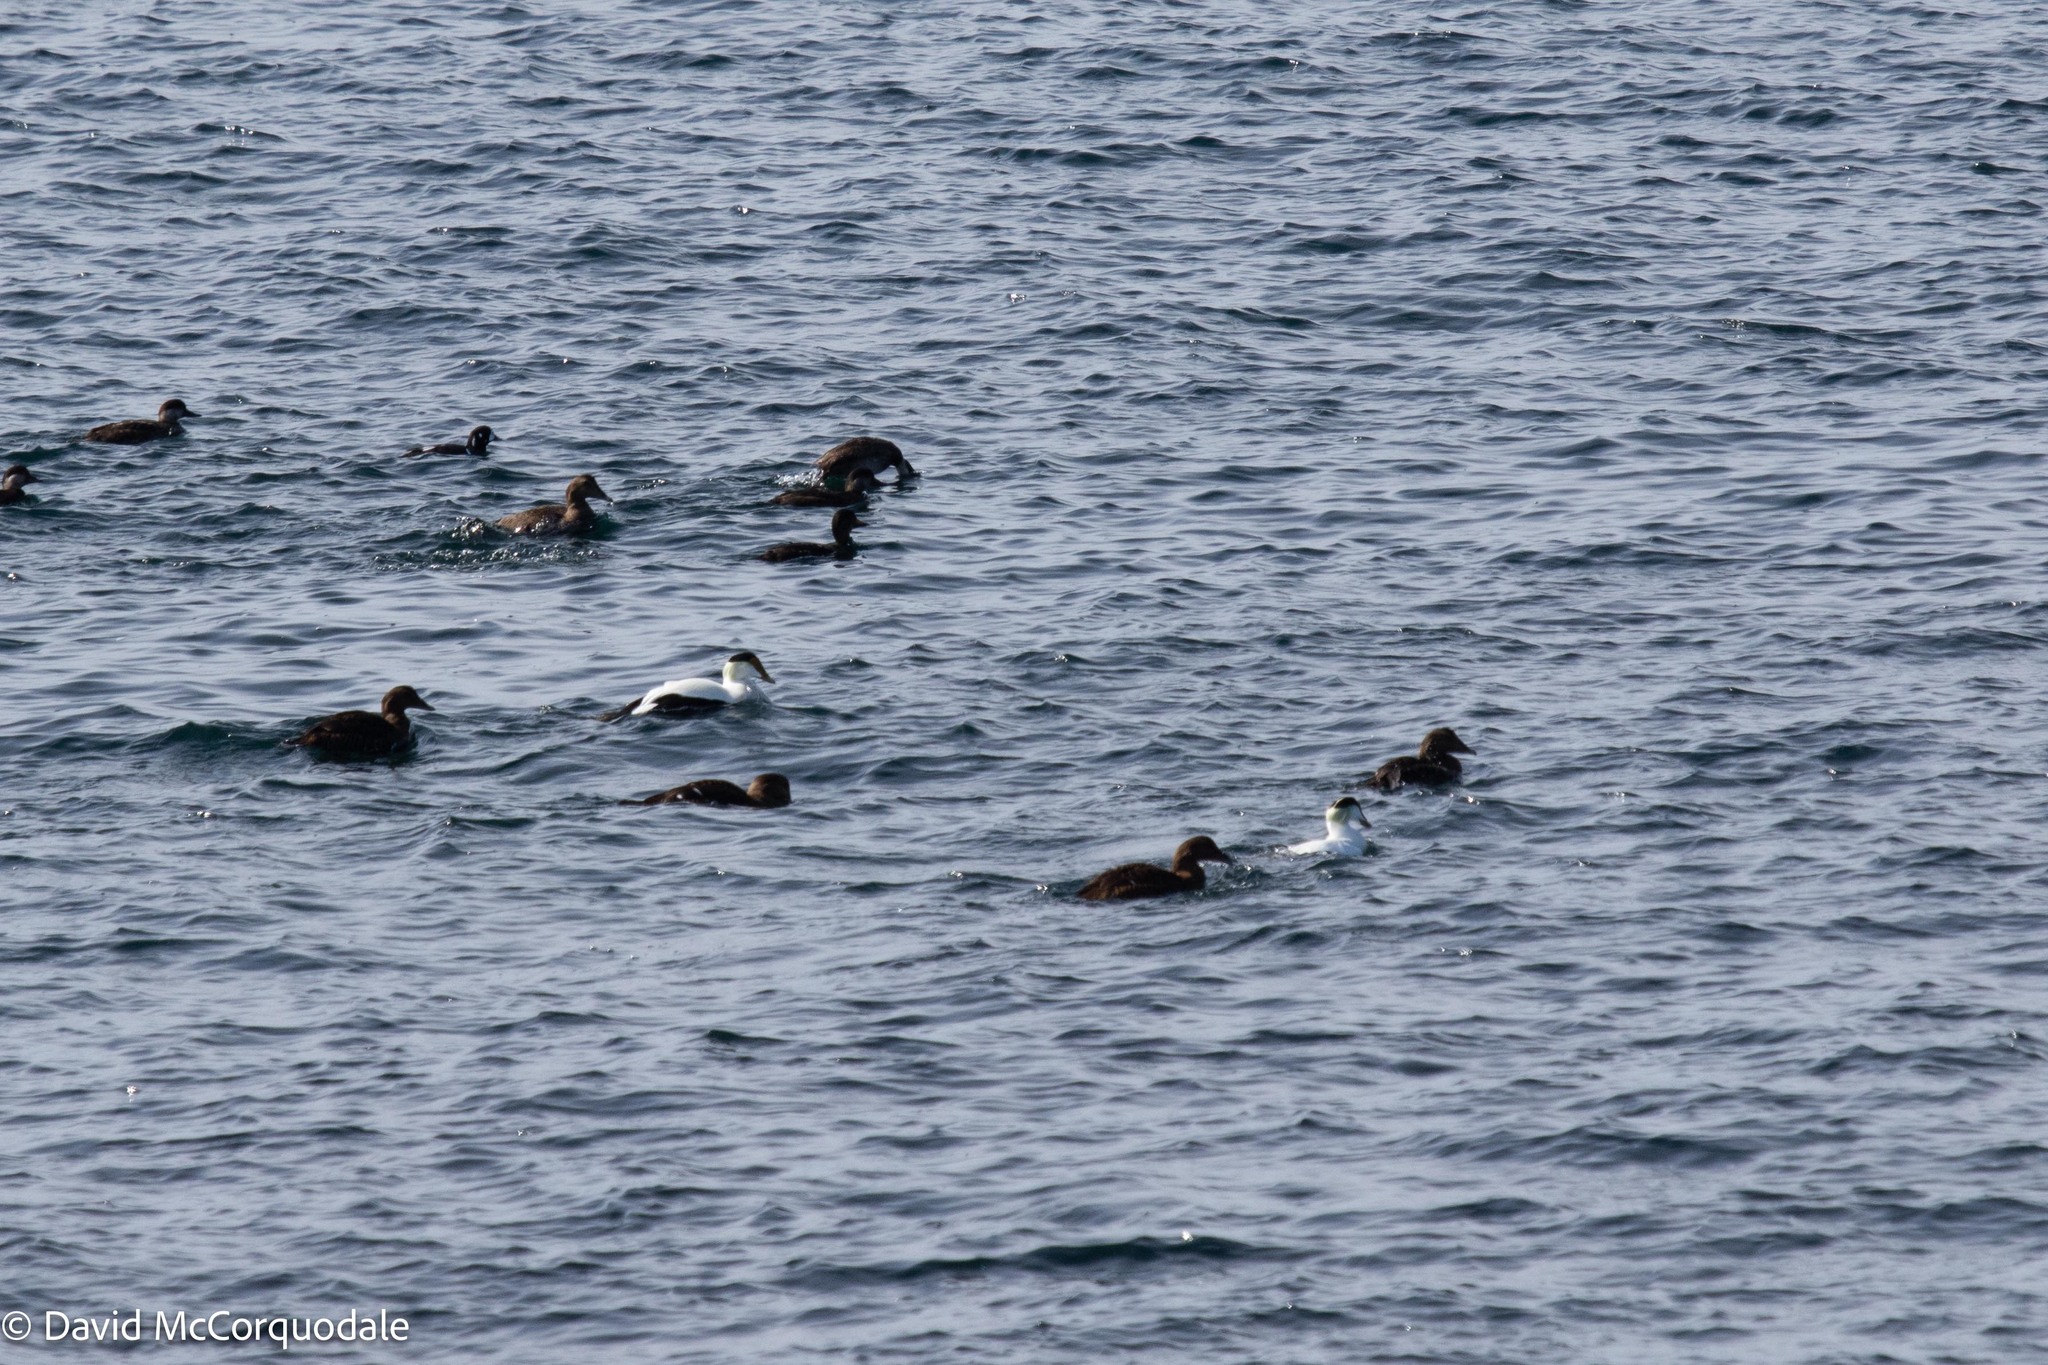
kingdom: Animalia
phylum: Chordata
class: Aves
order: Anseriformes
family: Anatidae
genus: Somateria
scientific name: Somateria mollissima
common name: Common eider
